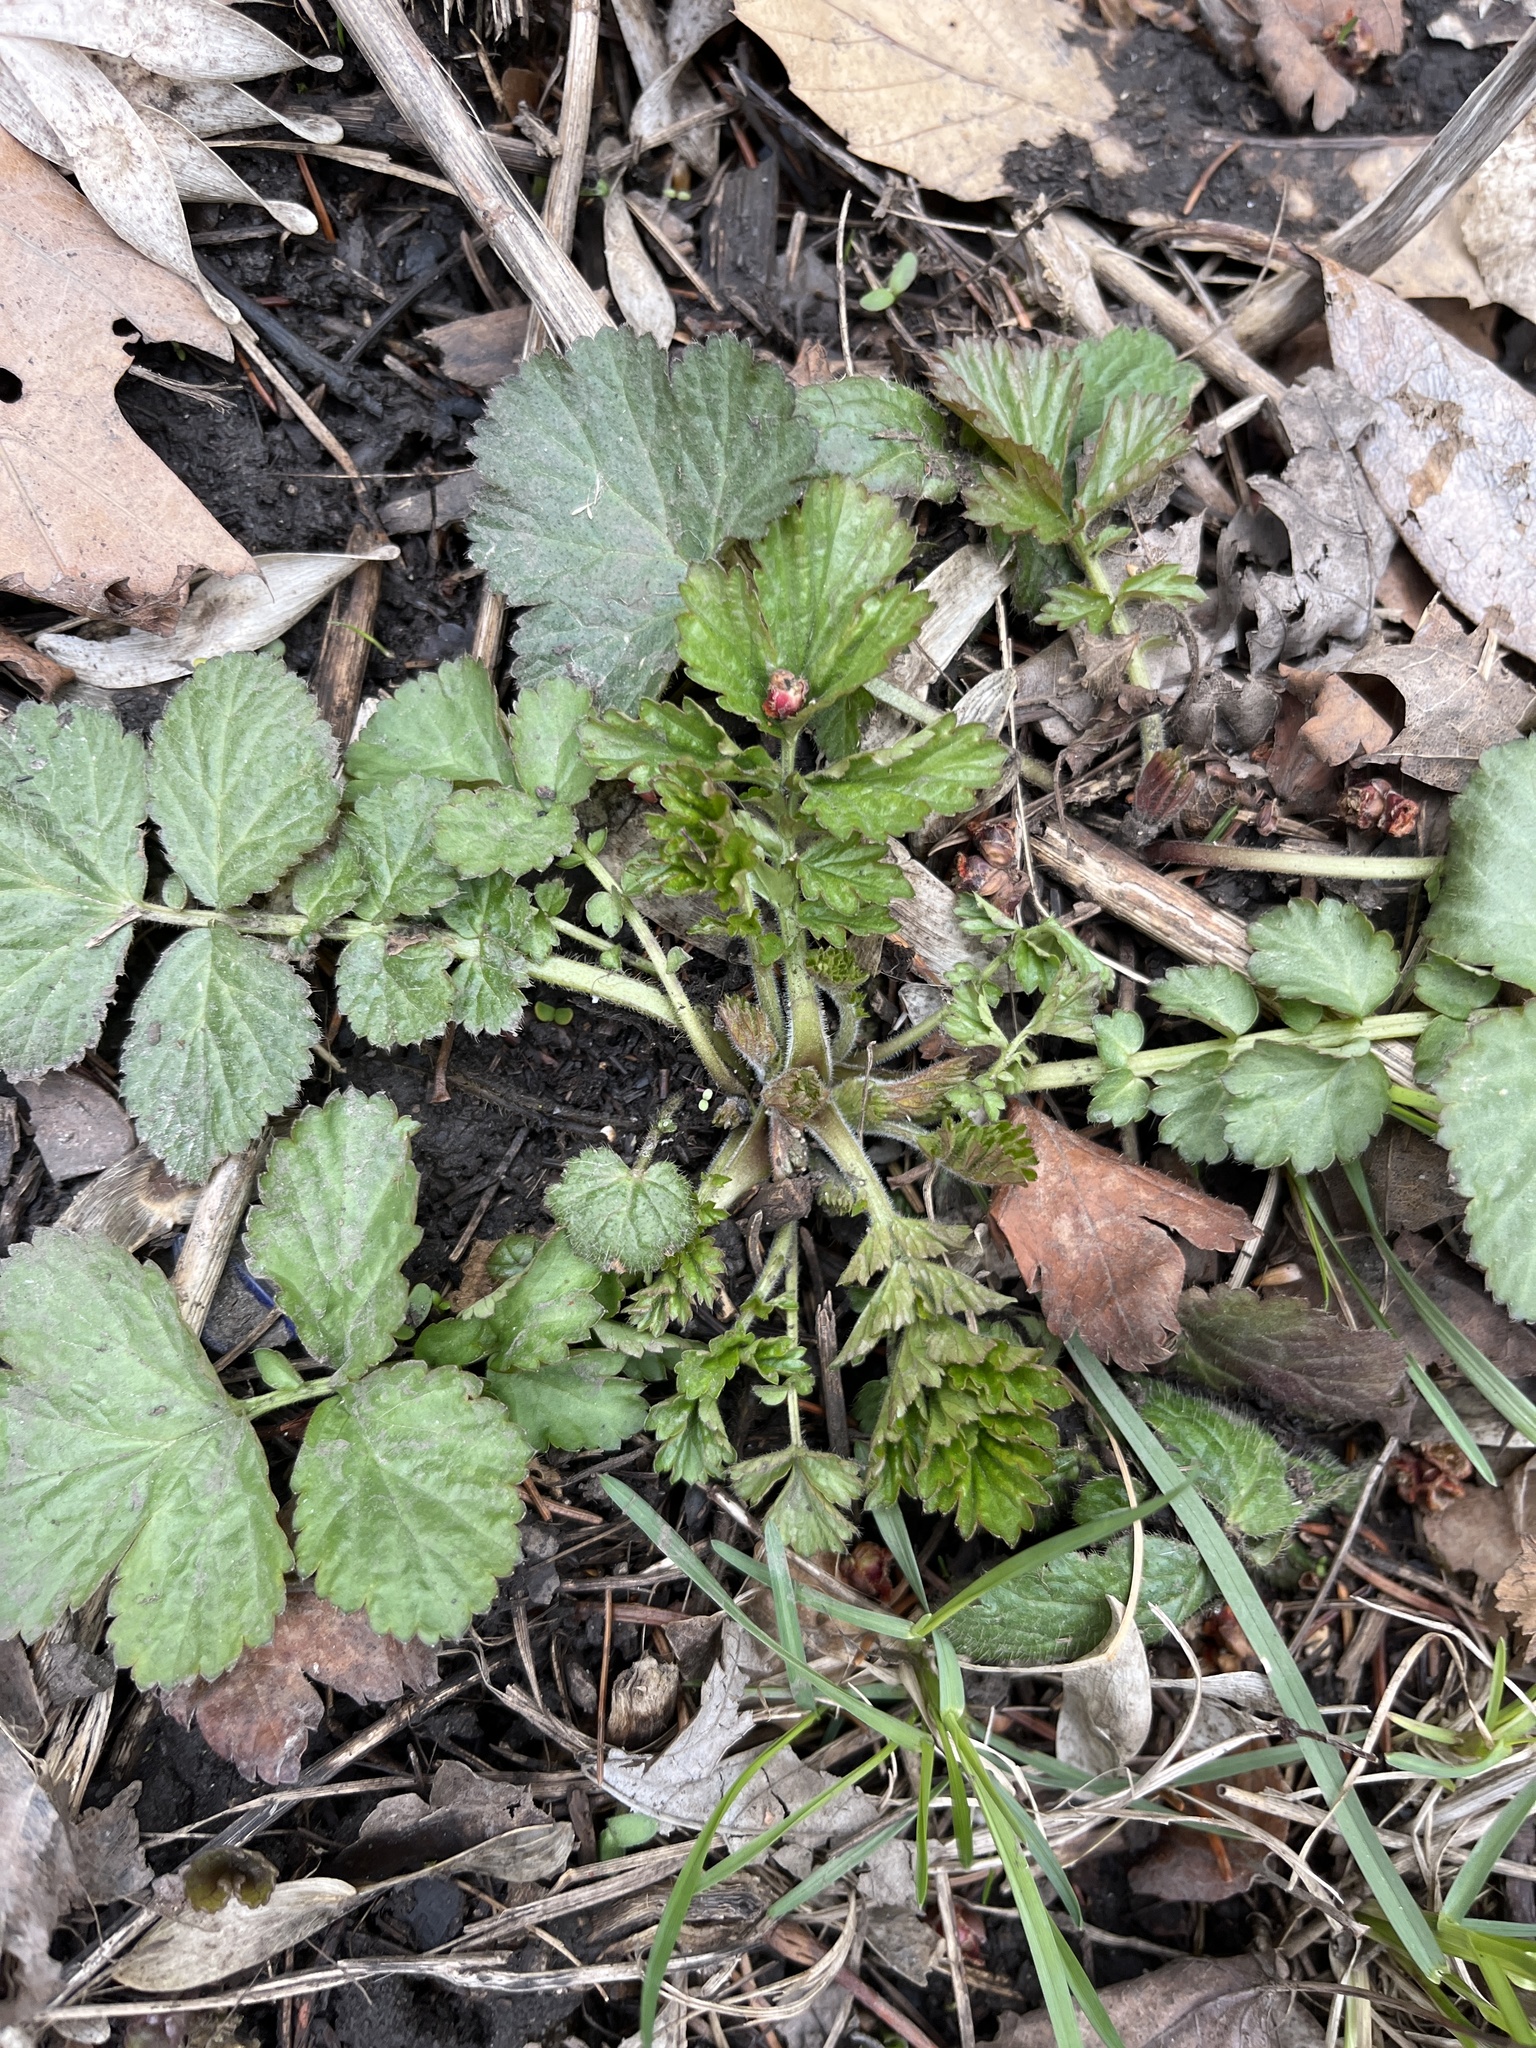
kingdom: Plantae
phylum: Tracheophyta
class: Magnoliopsida
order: Rosales
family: Rosaceae
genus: Geum
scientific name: Geum canadense
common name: White avens
